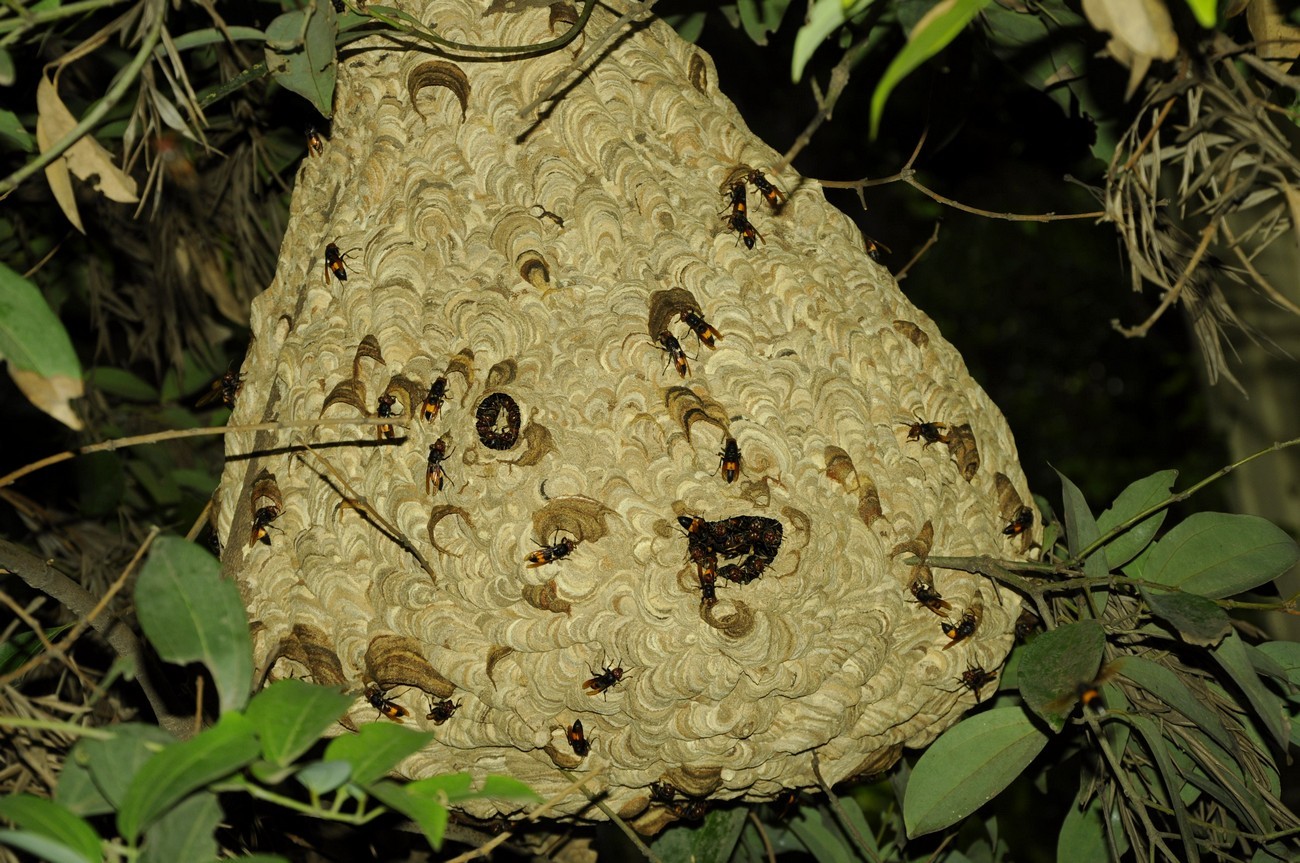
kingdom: Animalia
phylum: Arthropoda
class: Insecta
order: Hymenoptera
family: Vespidae
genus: Vespa
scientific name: Vespa affinis
